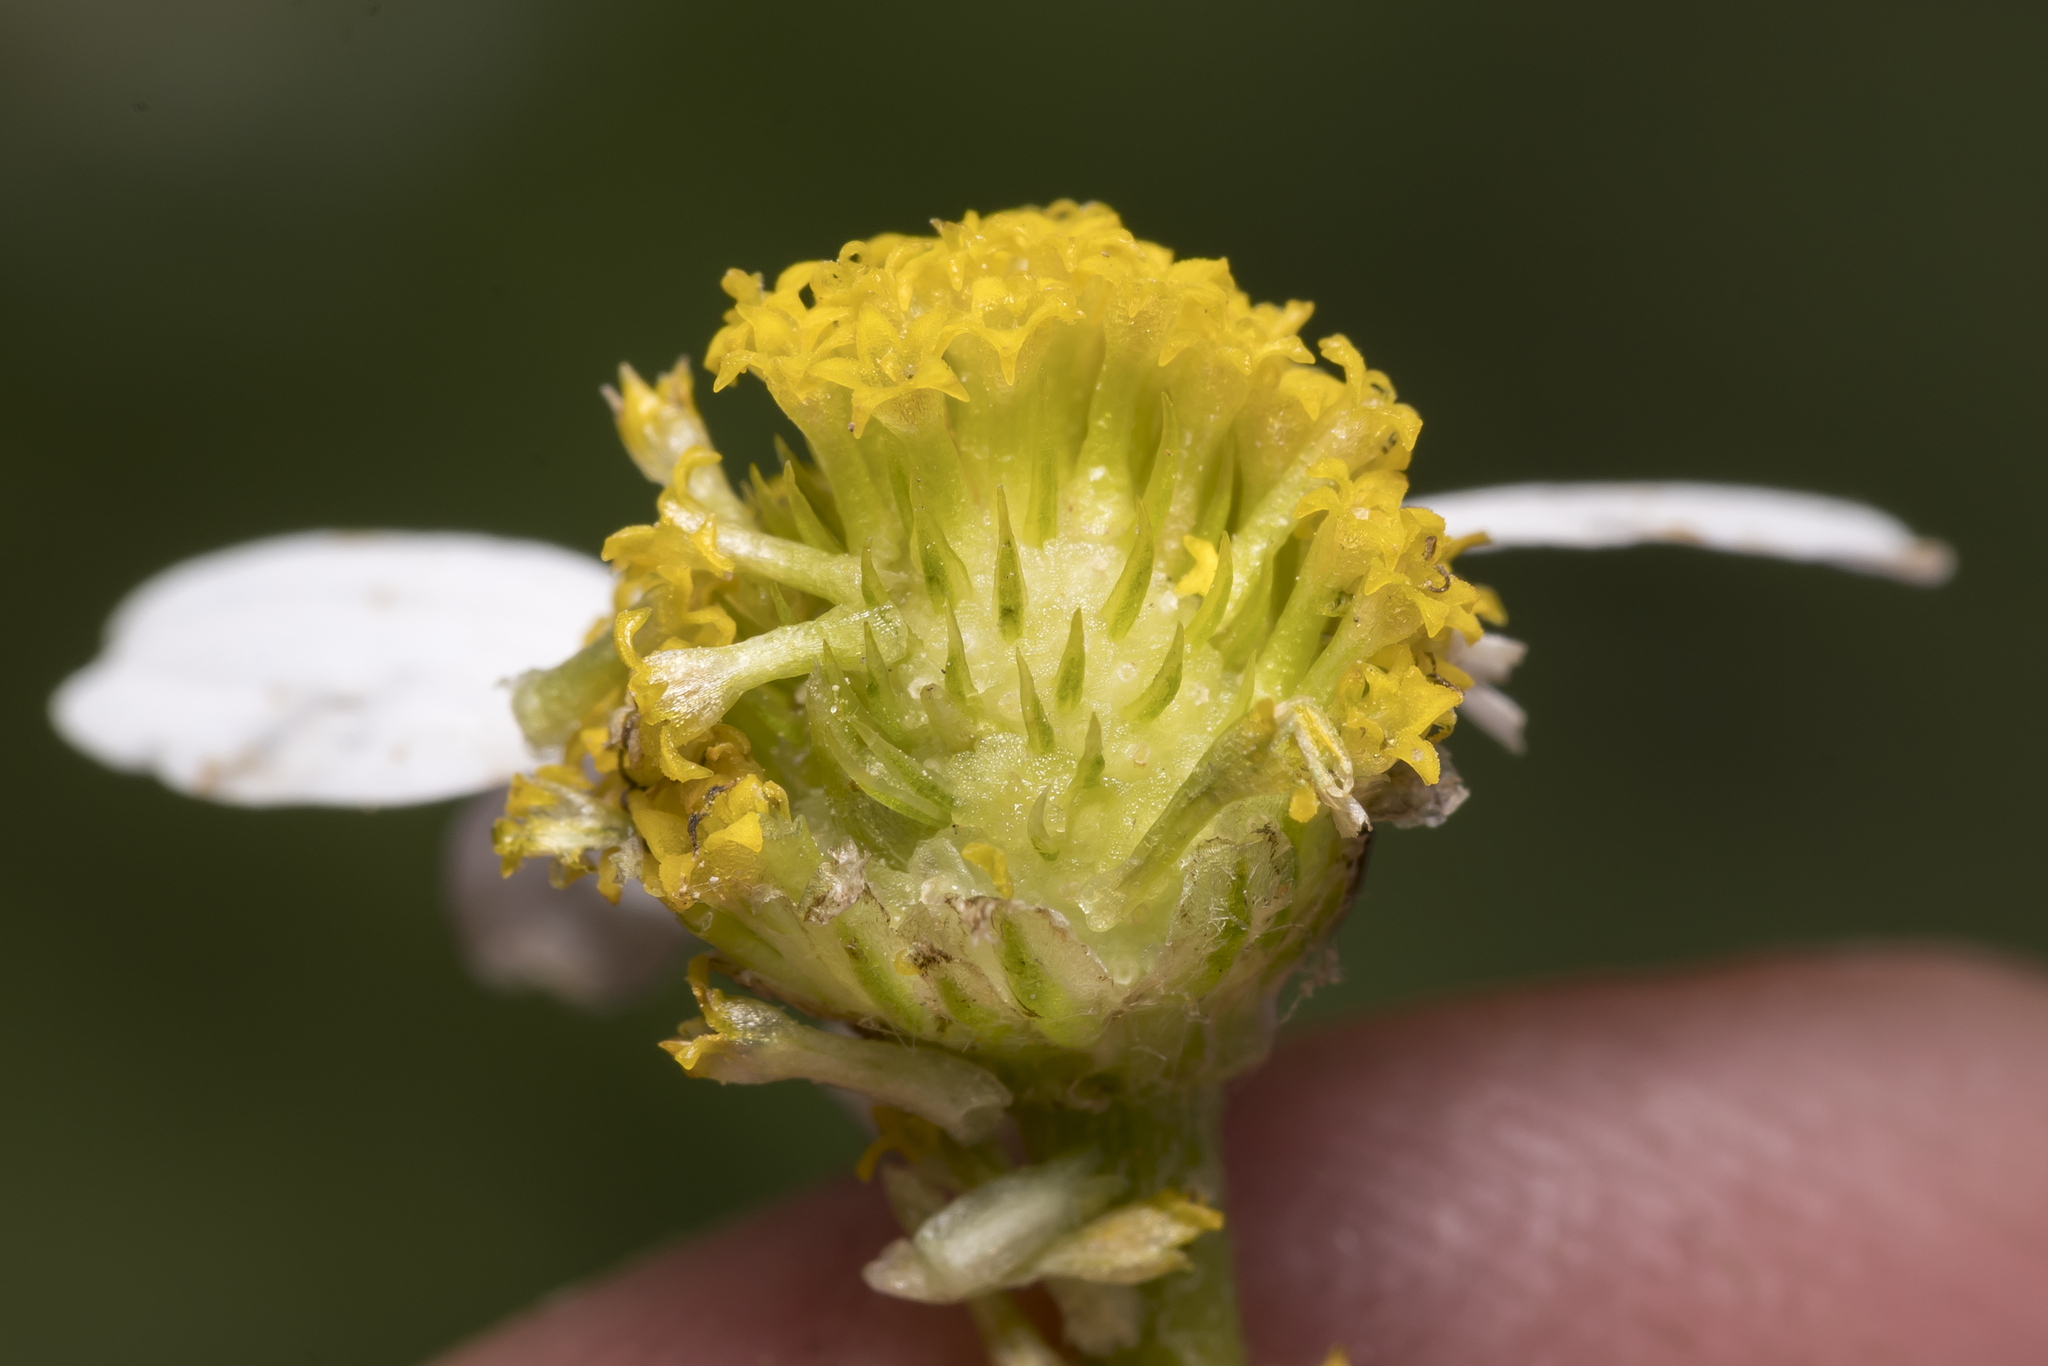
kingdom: Plantae
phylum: Tracheophyta
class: Magnoliopsida
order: Asterales
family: Asteraceae
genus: Anthemis
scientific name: Anthemis pseudocotula
